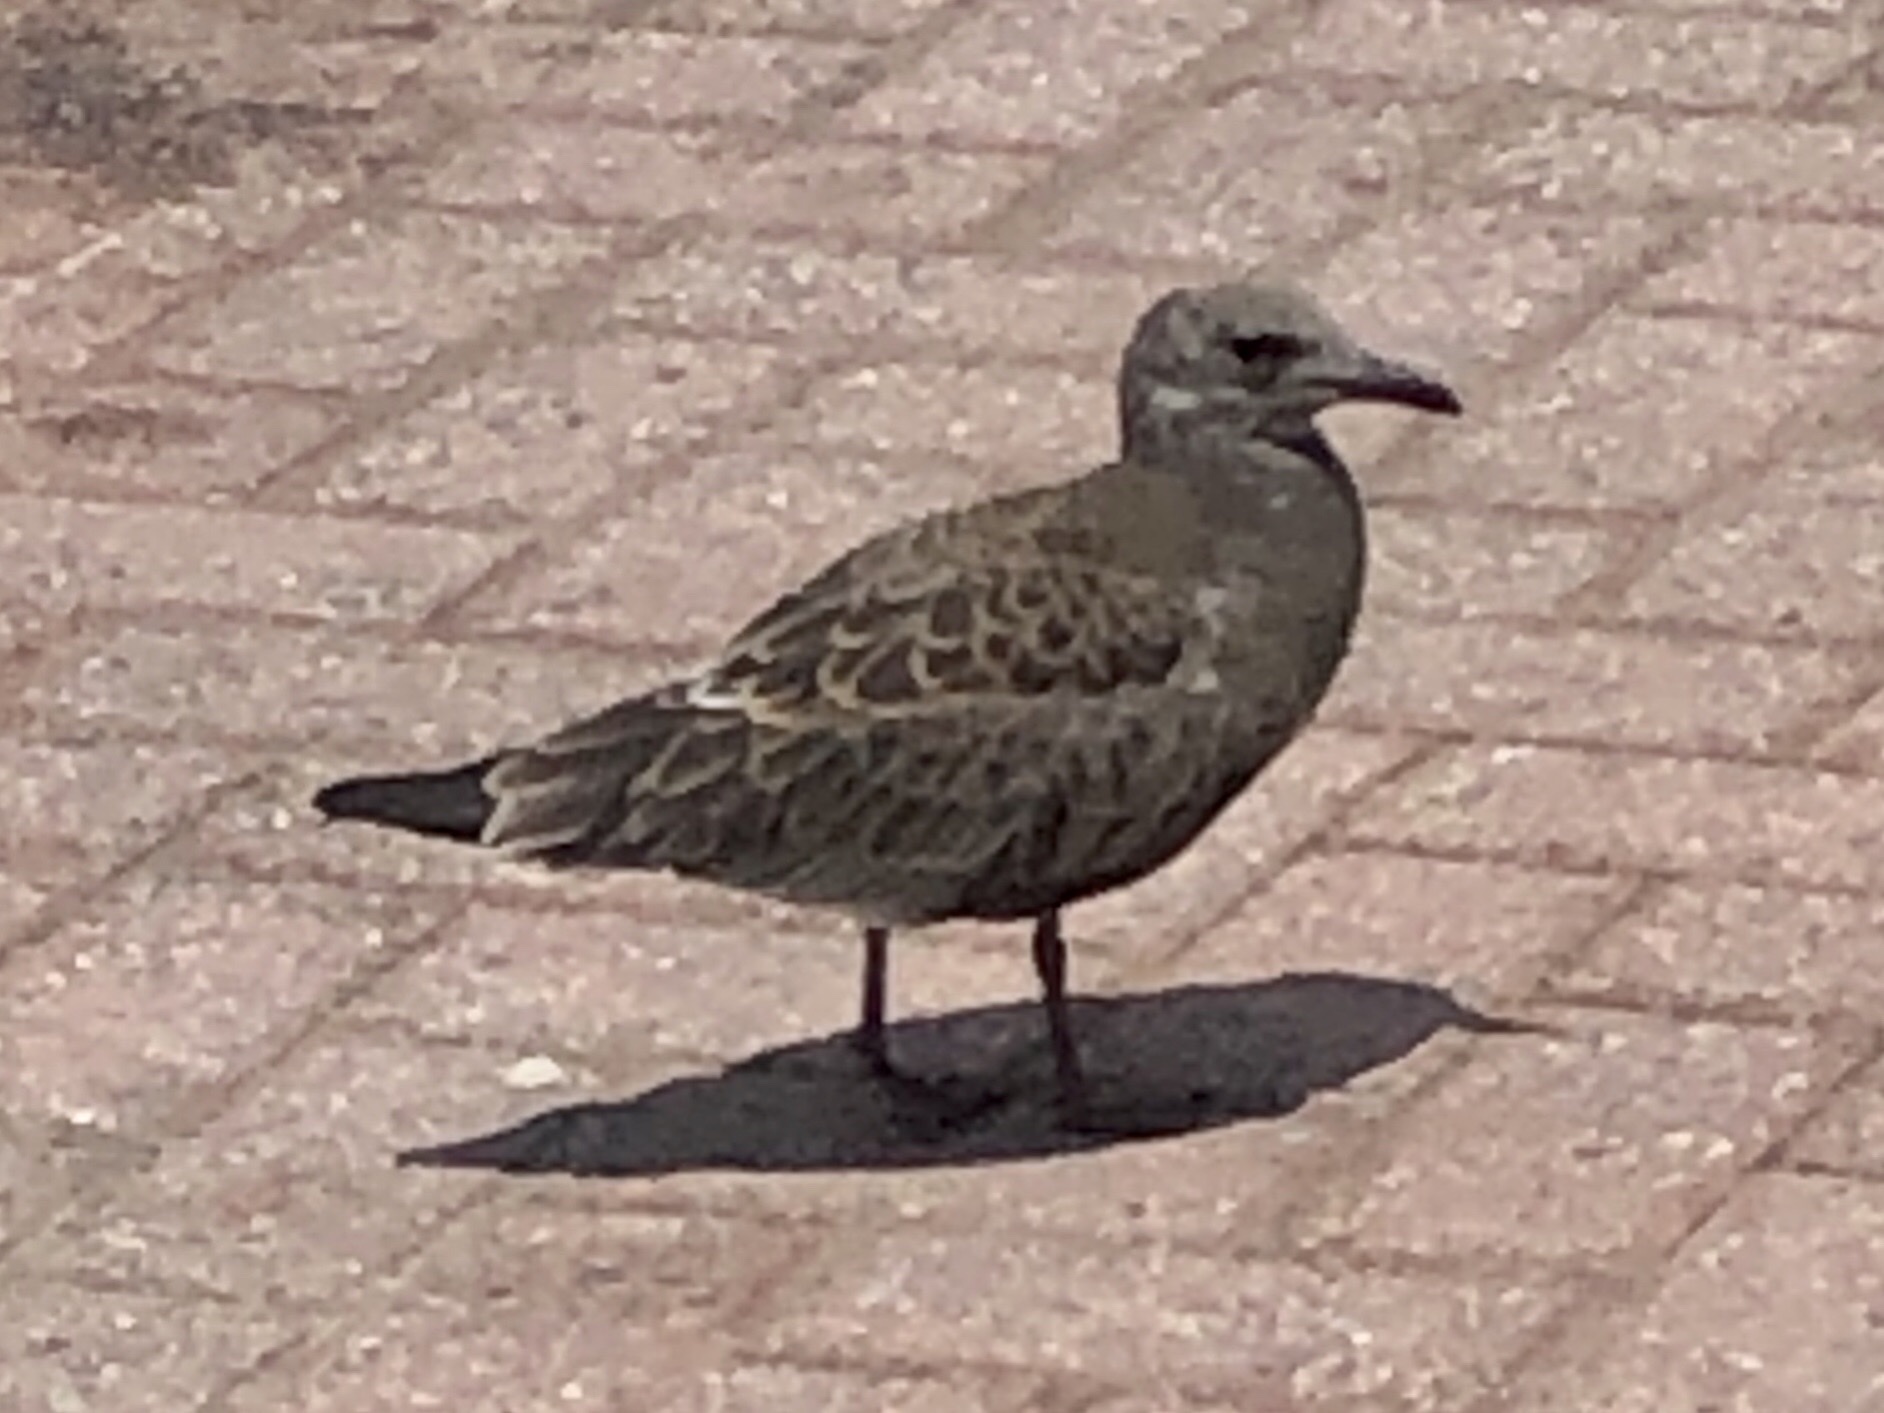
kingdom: Animalia
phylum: Chordata
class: Aves
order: Charadriiformes
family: Laridae
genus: Larus
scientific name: Larus argentatus
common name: Herring gull
